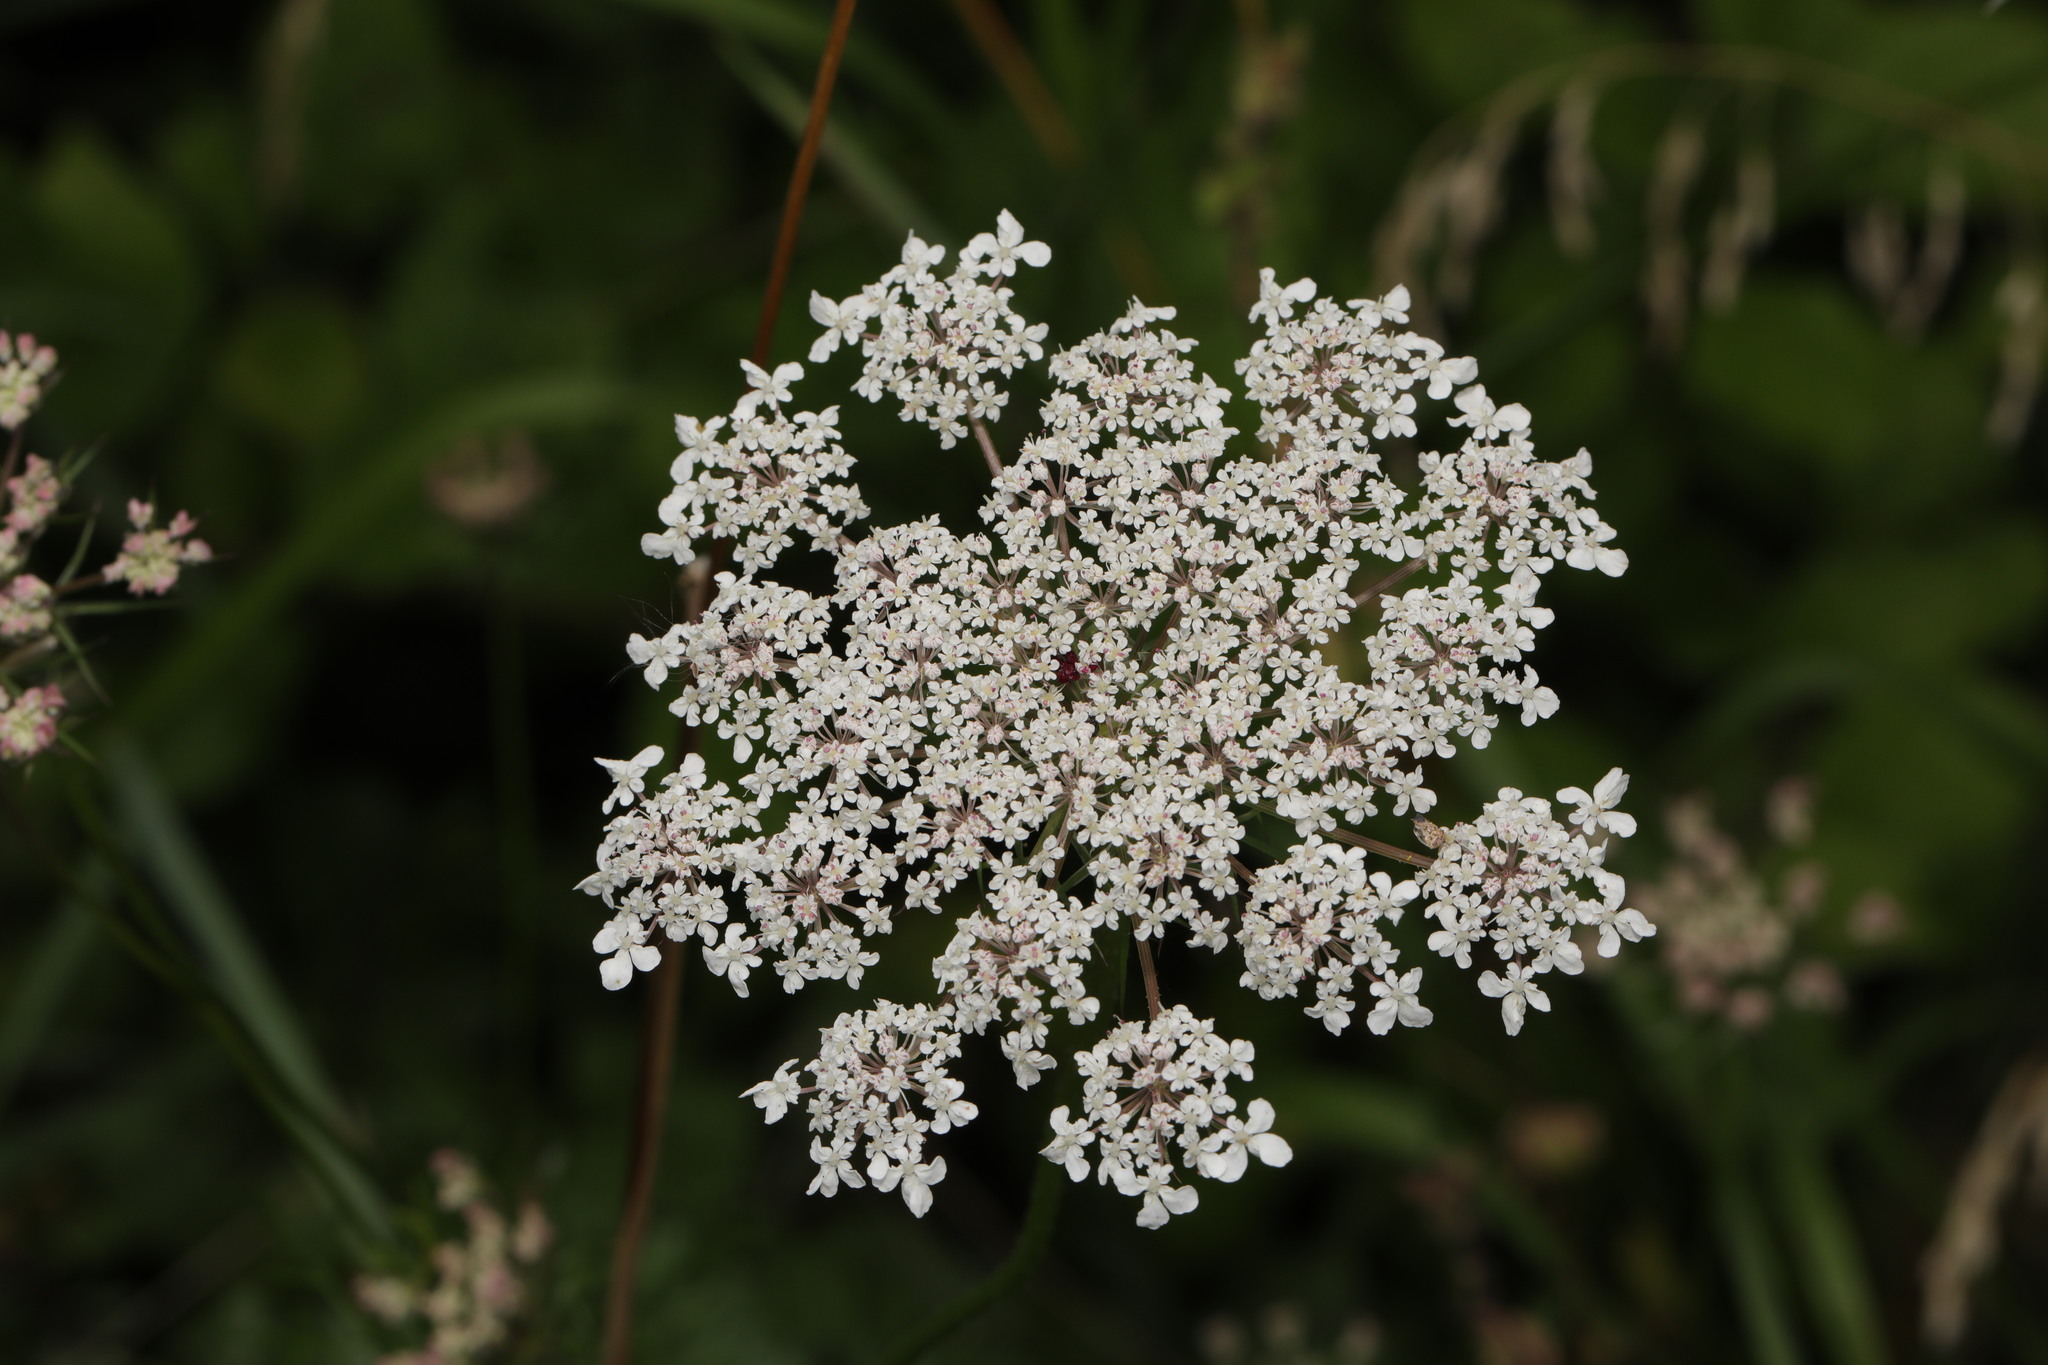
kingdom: Plantae
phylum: Tracheophyta
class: Magnoliopsida
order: Apiales
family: Apiaceae
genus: Daucus
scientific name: Daucus carota
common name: Wild carrot
